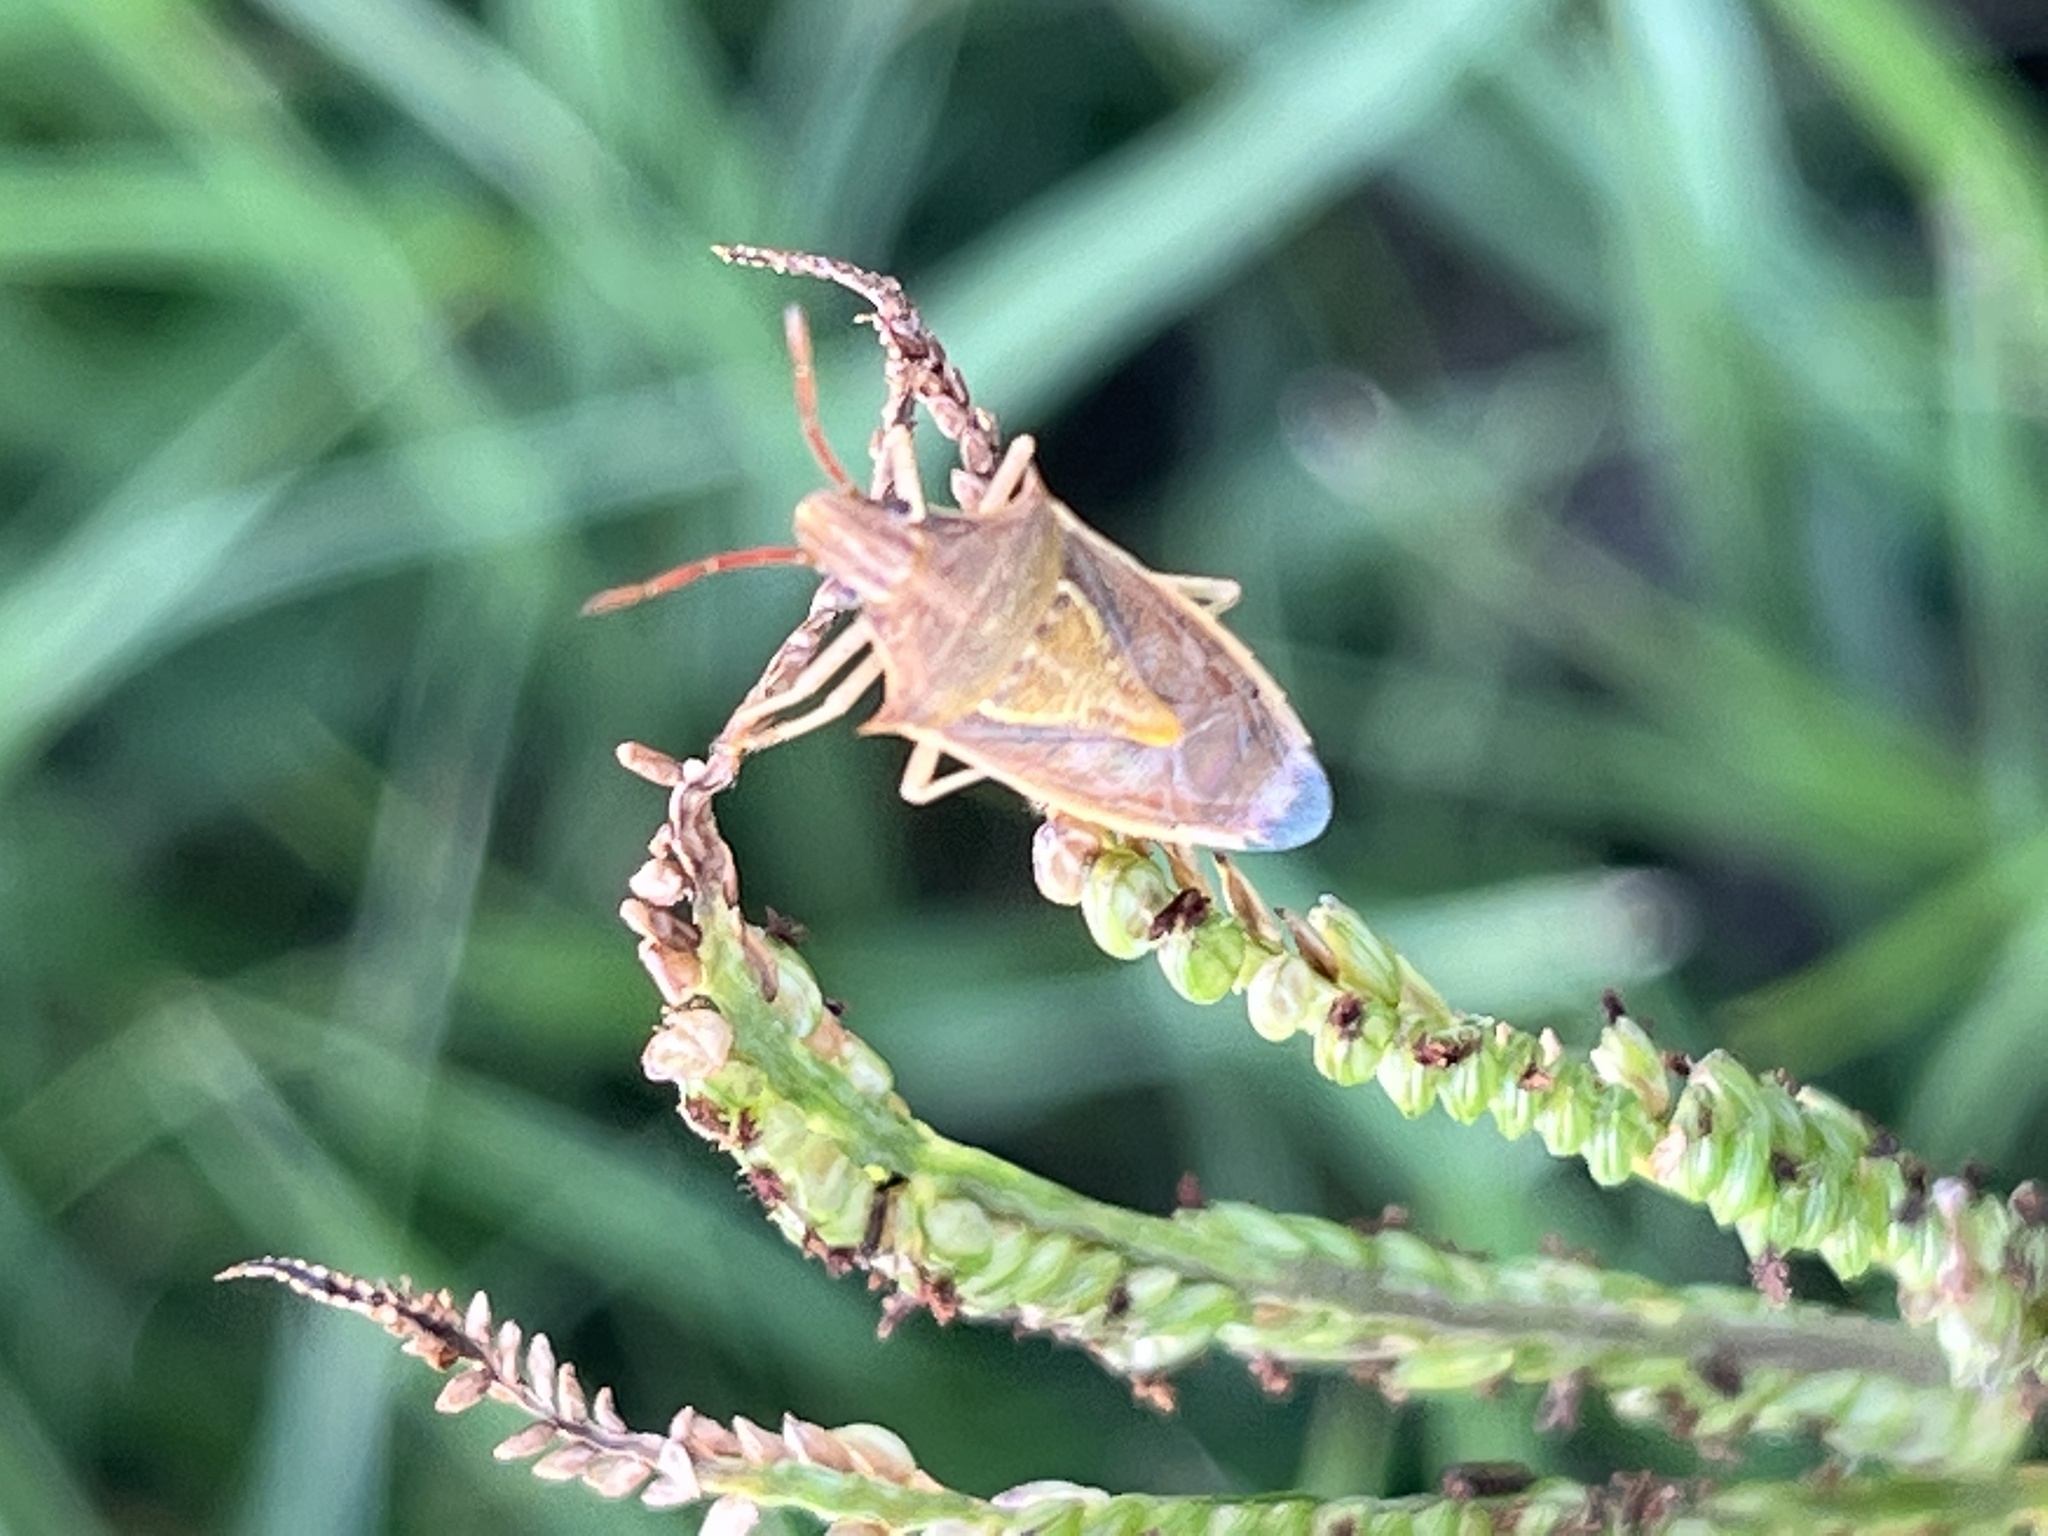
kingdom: Animalia
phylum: Arthropoda
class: Insecta
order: Hemiptera
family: Pentatomidae
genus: Oebalus
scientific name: Oebalus pugnax
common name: Rice stink bug
